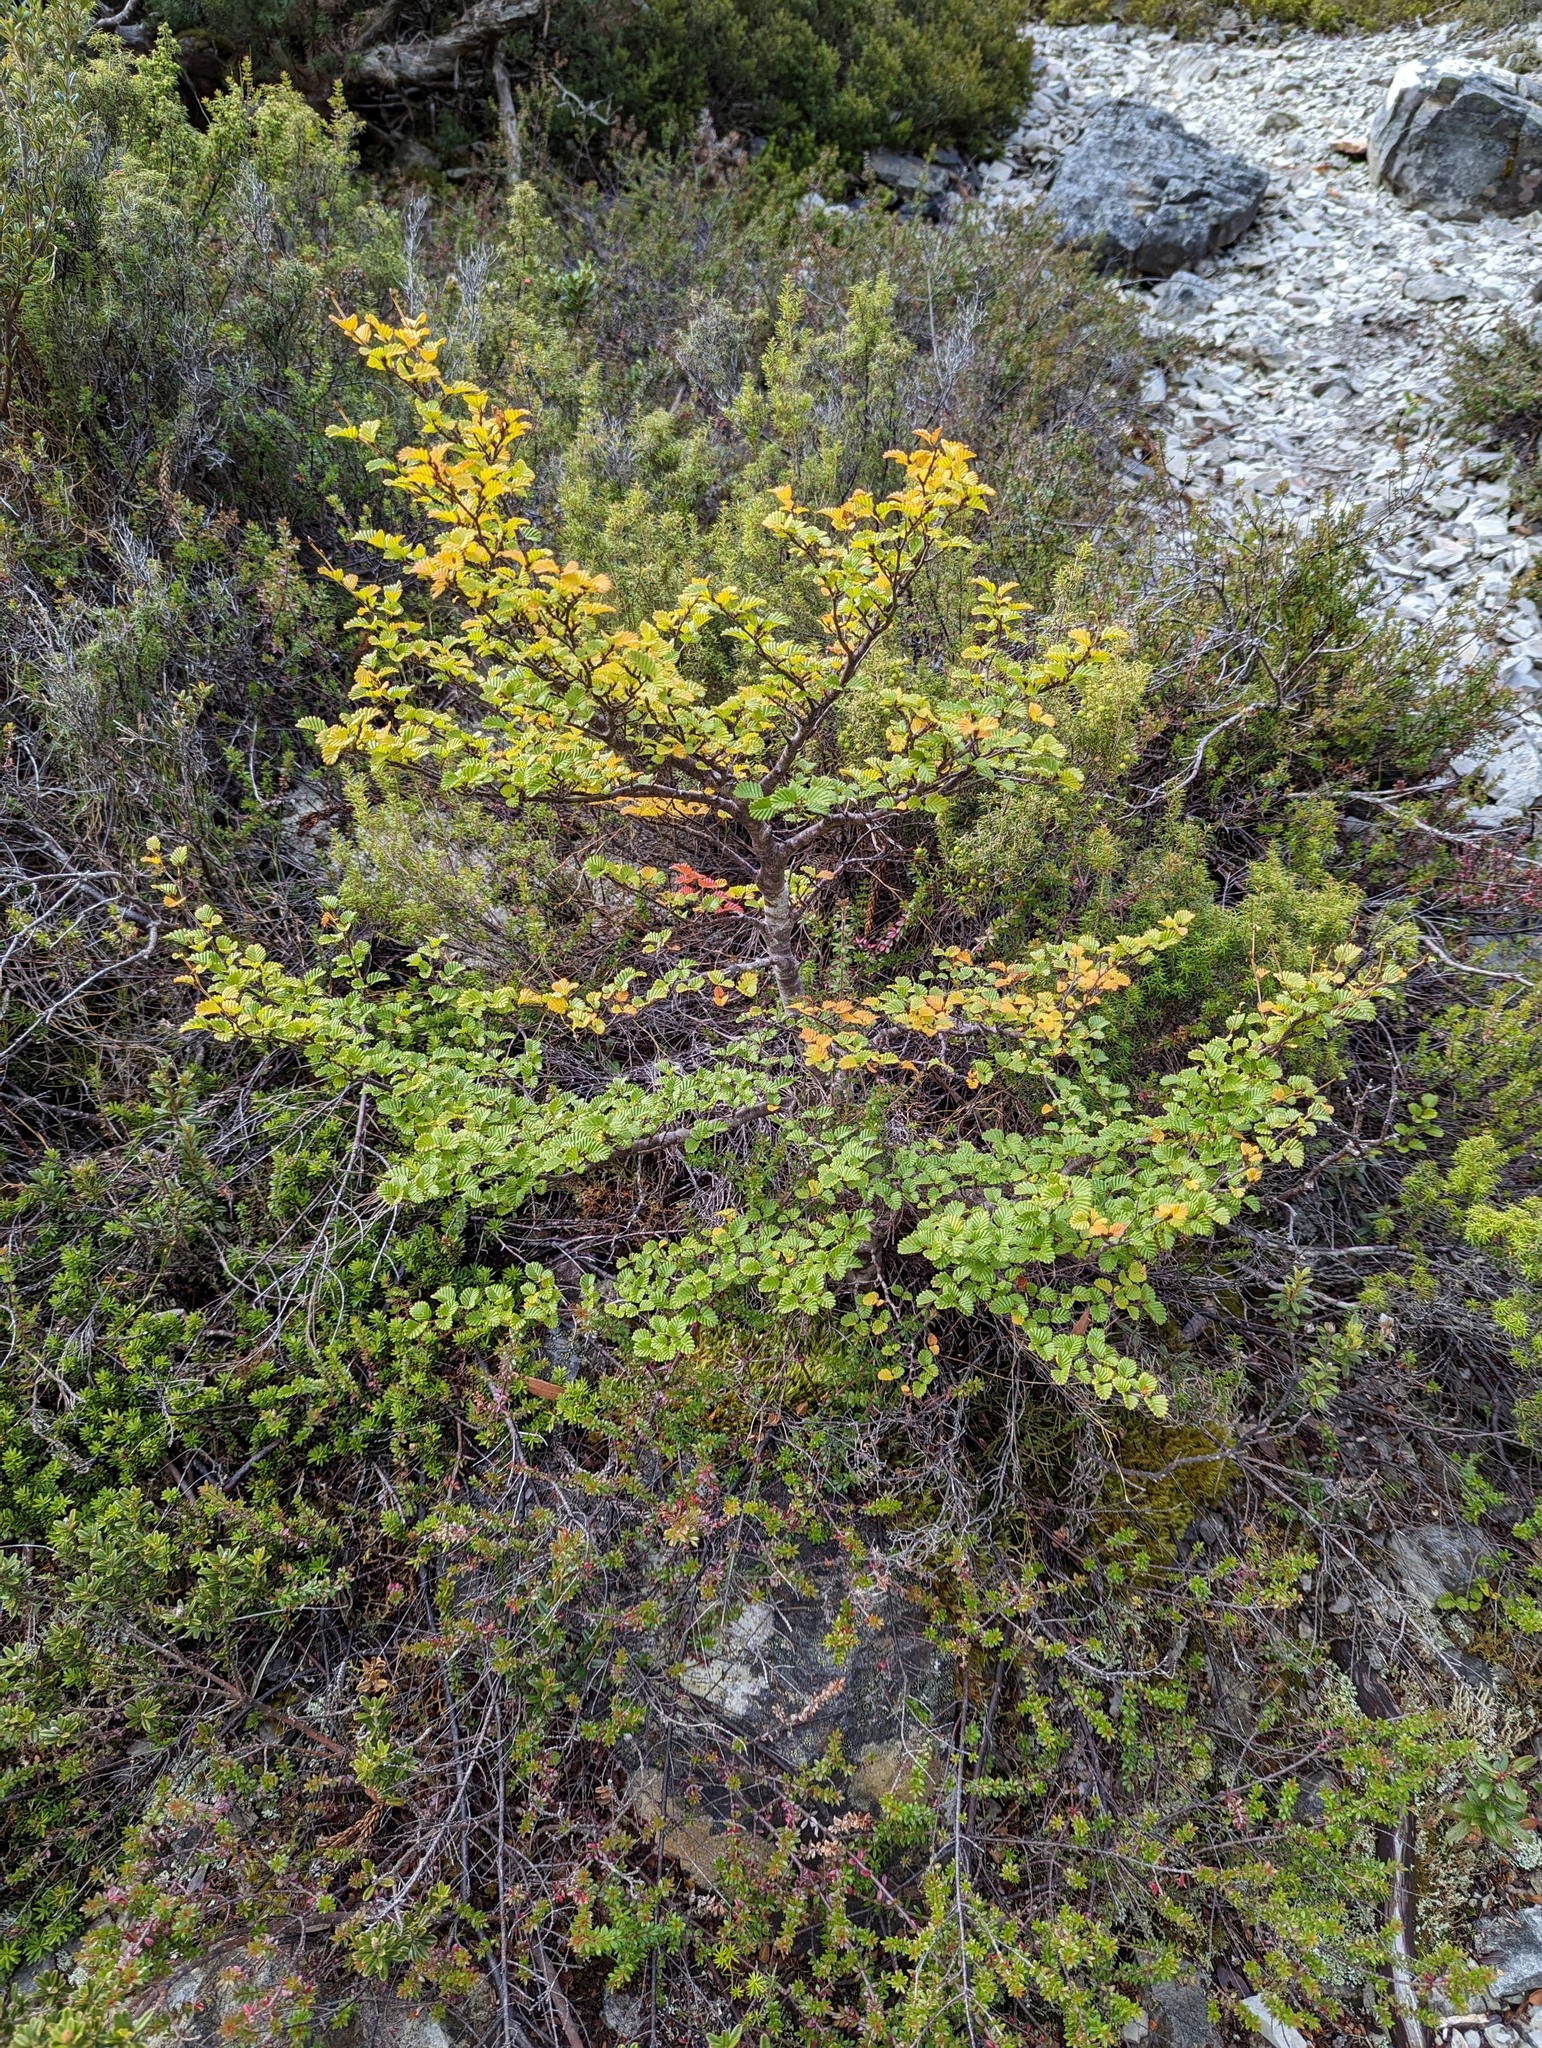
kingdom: Plantae
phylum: Tracheophyta
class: Magnoliopsida
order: Fagales
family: Nothofagaceae
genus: Nothofagus
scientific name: Nothofagus gunnii
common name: Tanglefoot
